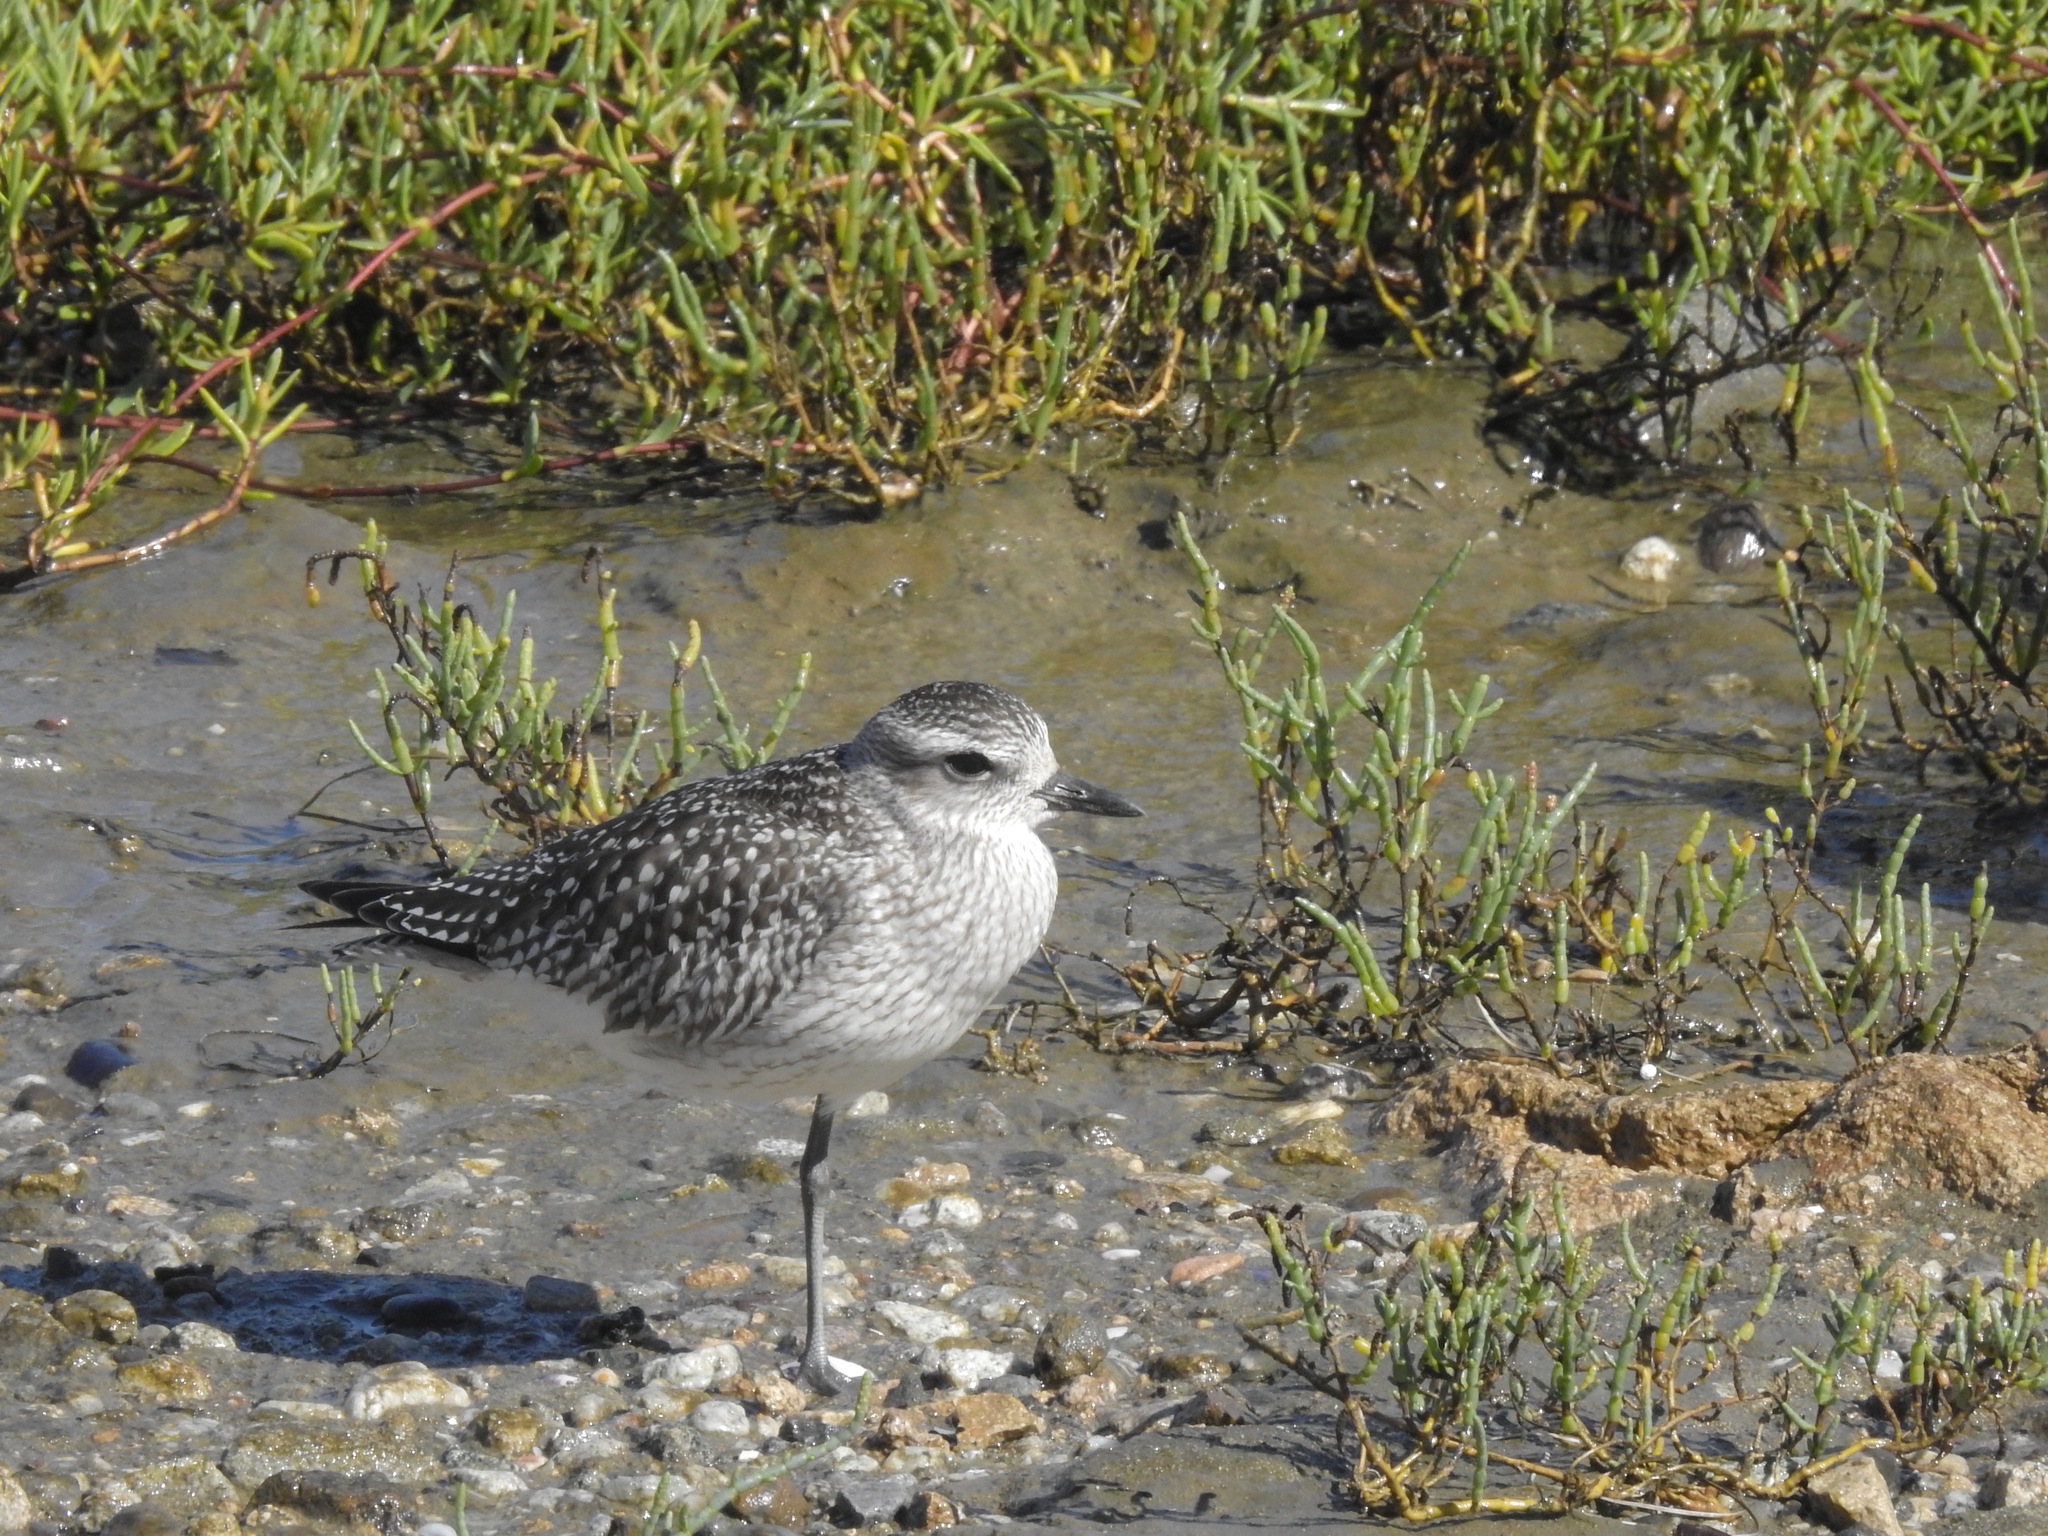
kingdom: Animalia
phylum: Chordata
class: Aves
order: Charadriiformes
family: Charadriidae
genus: Pluvialis
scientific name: Pluvialis squatarola
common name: Grey plover
